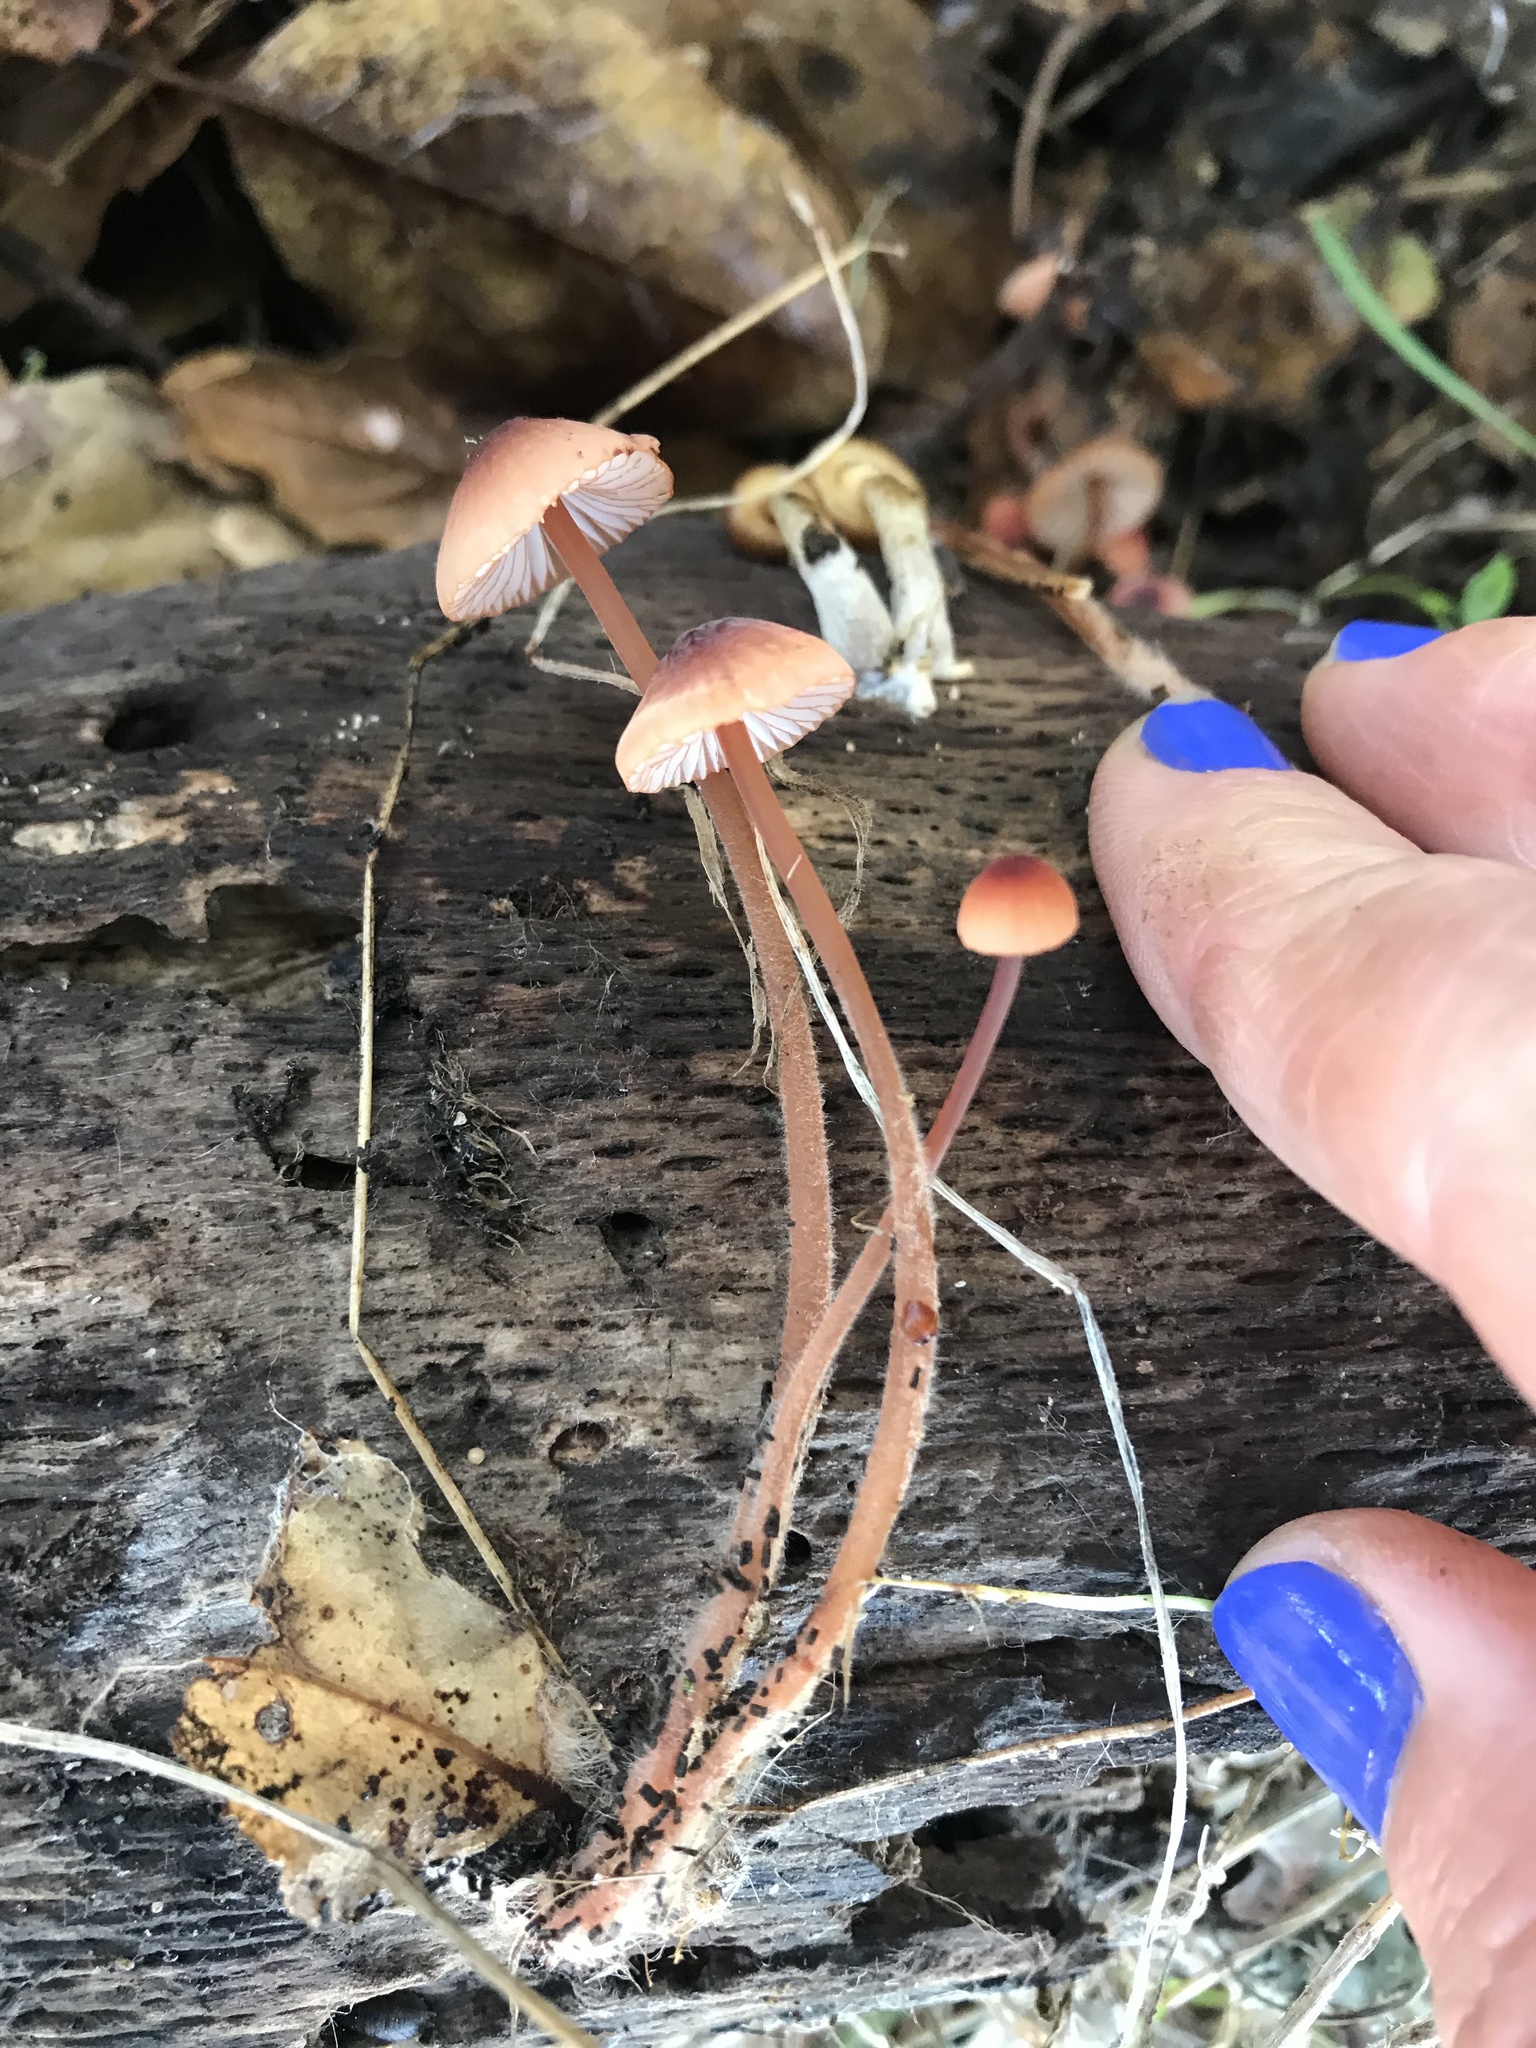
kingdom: Fungi
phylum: Basidiomycota
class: Agaricomycetes
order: Agaricales
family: Mycenaceae
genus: Mycena
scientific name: Mycena
